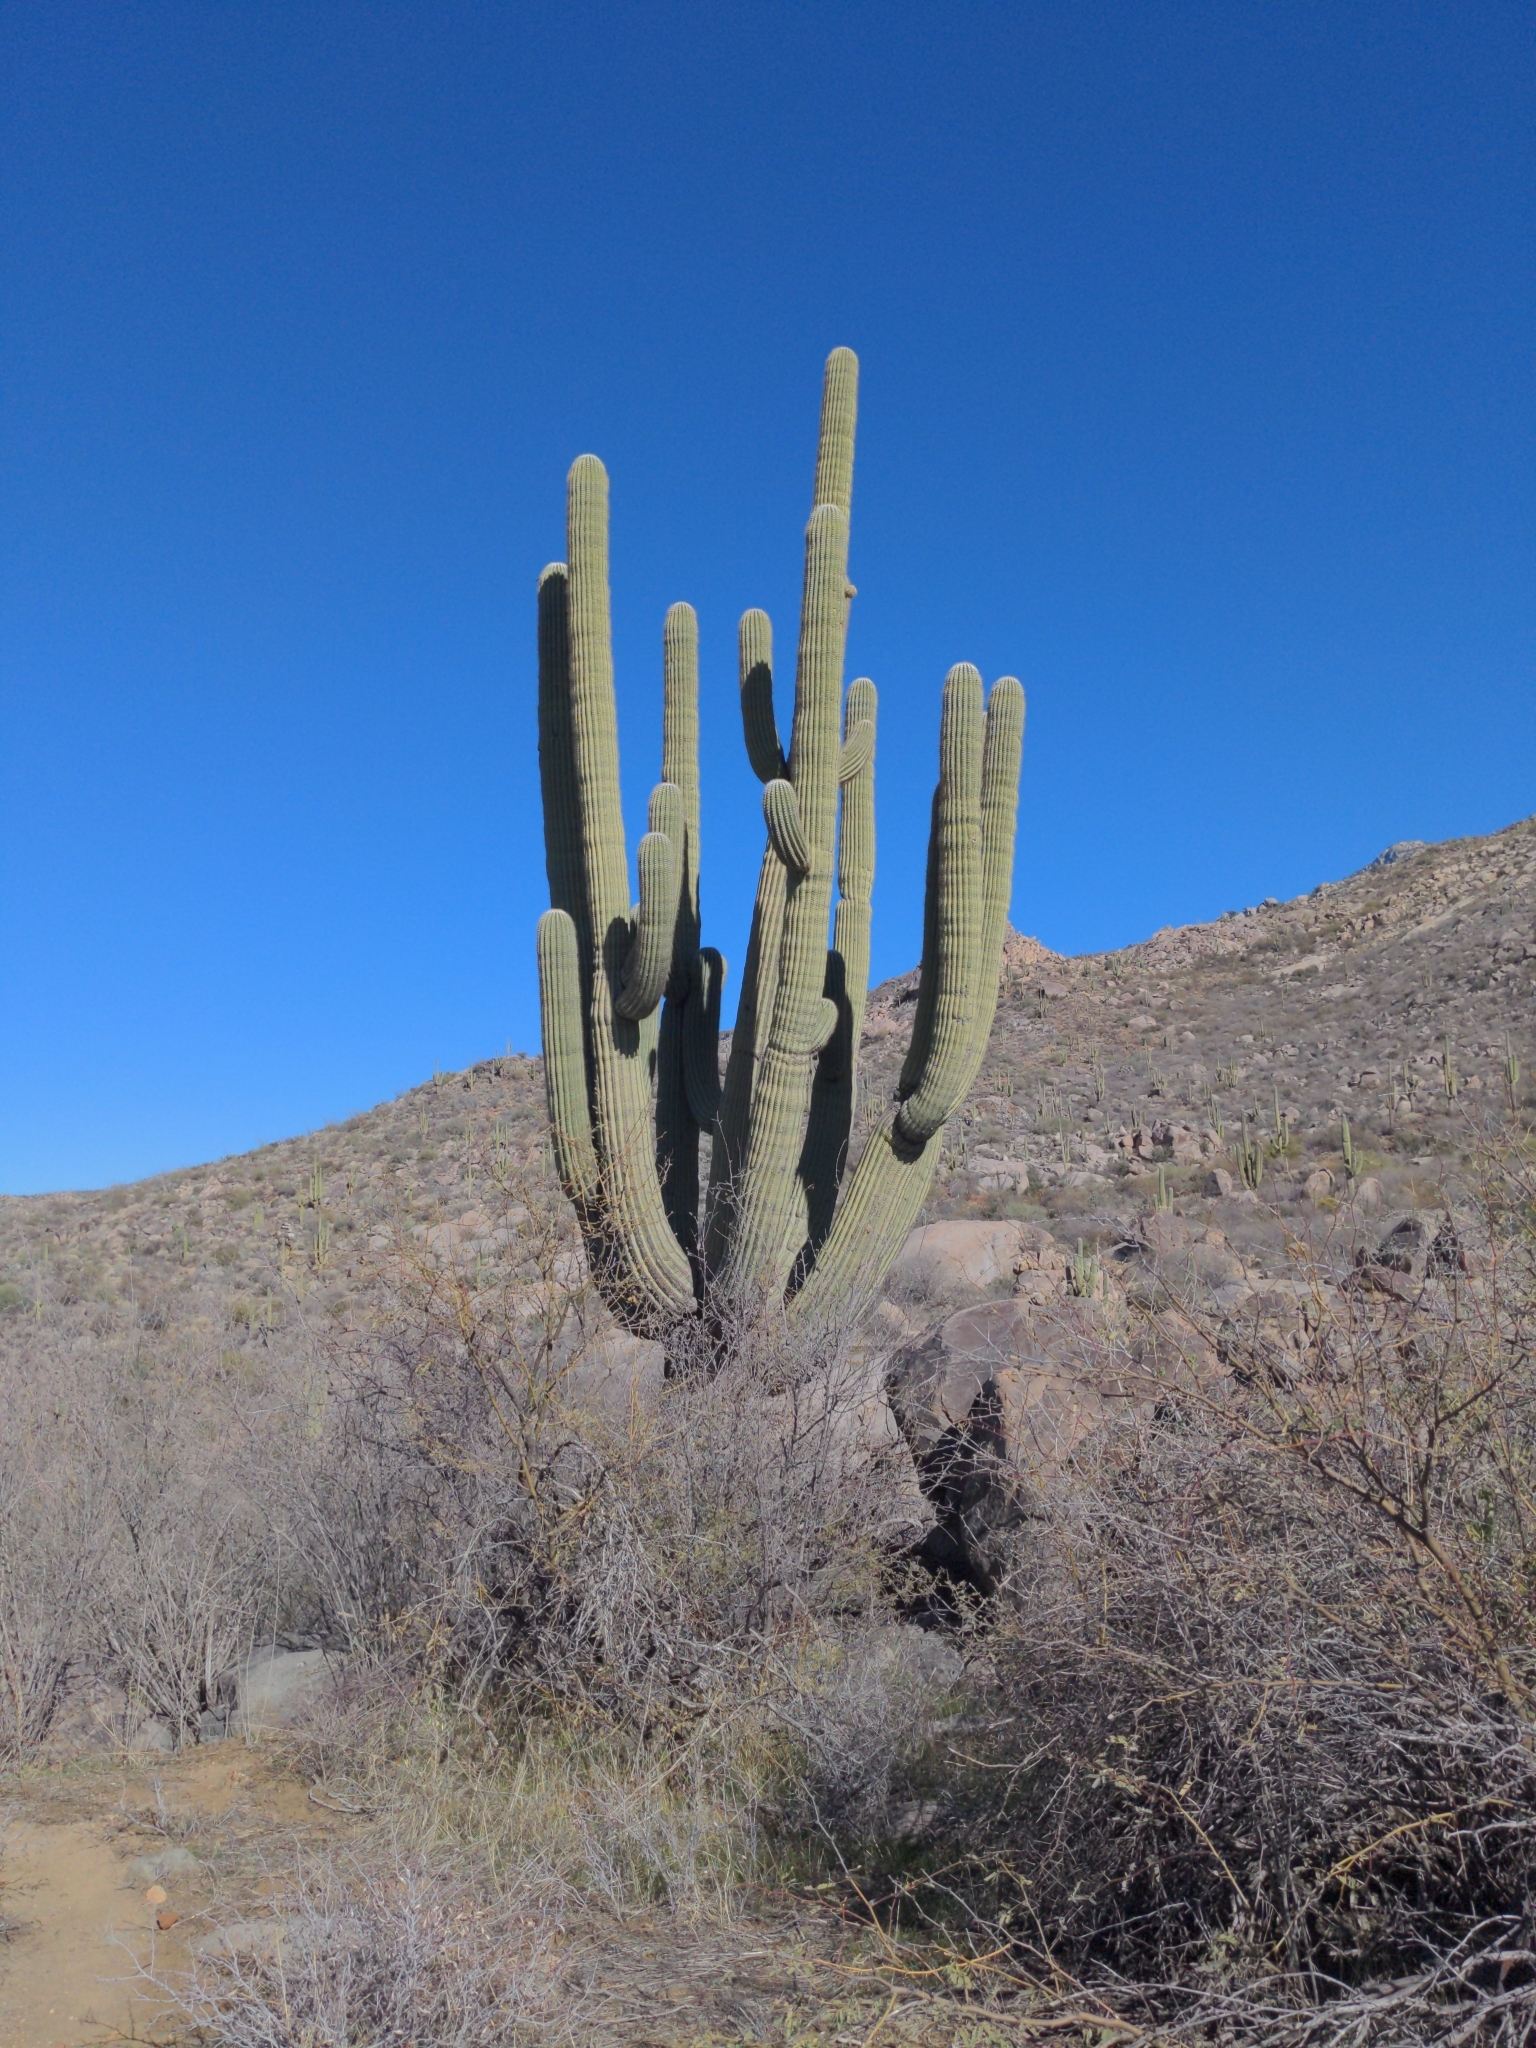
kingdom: Plantae
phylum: Tracheophyta
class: Magnoliopsida
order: Caryophyllales
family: Cactaceae
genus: Carnegiea
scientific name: Carnegiea gigantea
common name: Saguaro
